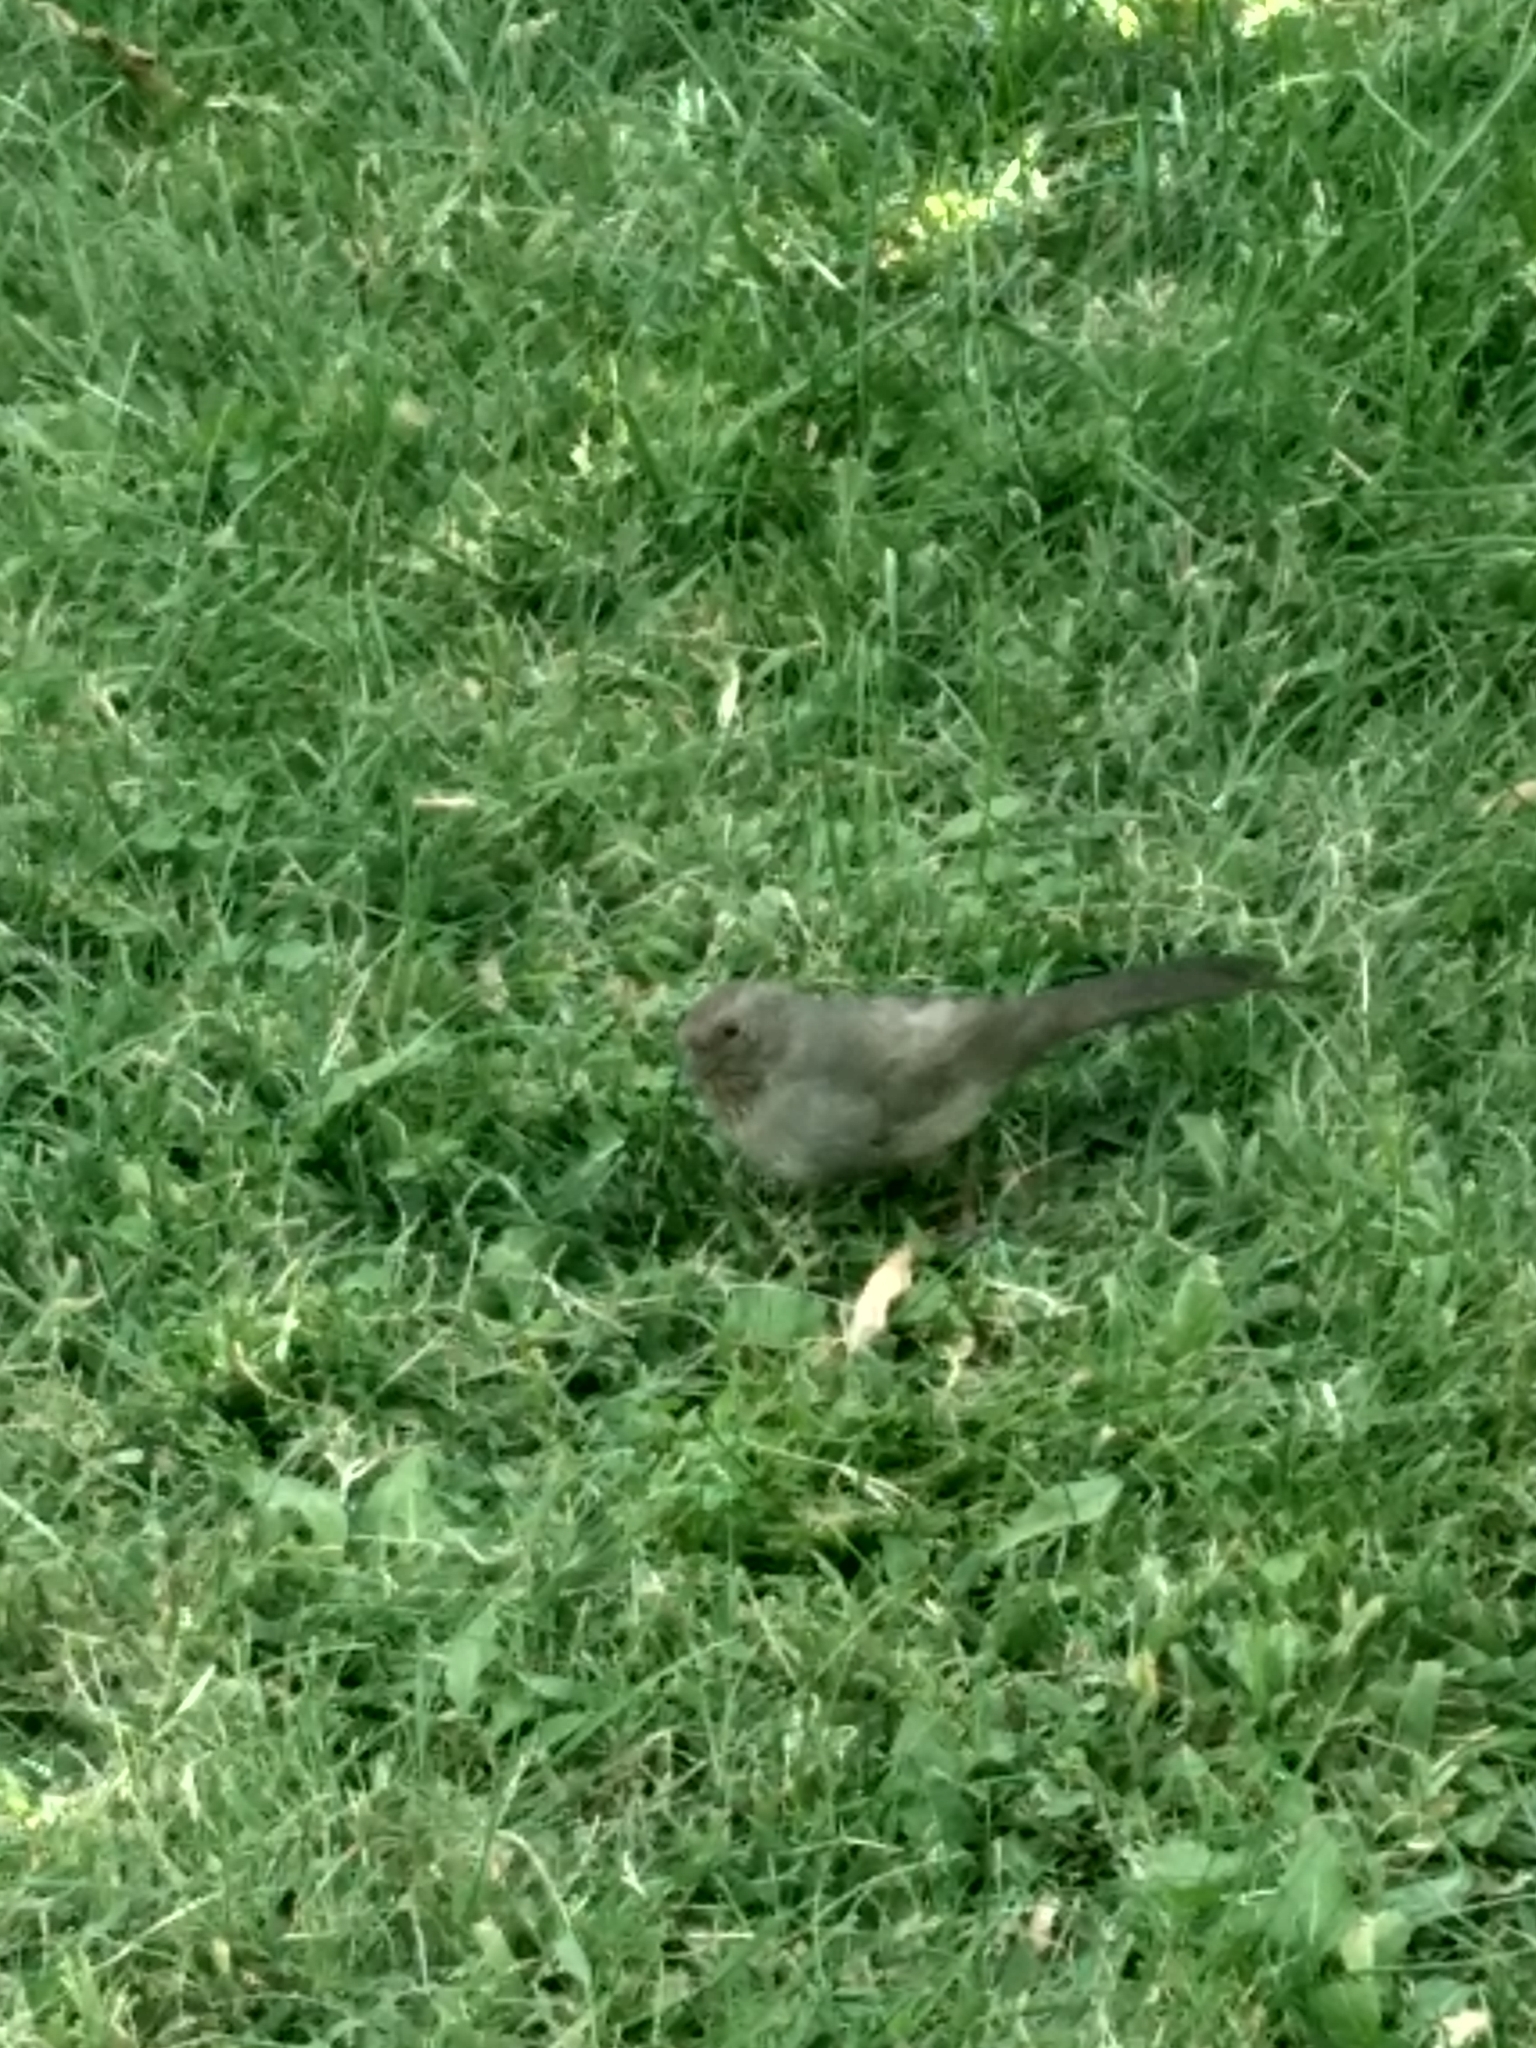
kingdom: Animalia
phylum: Chordata
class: Aves
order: Passeriformes
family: Passerellidae
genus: Melozone
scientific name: Melozone crissalis
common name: California towhee
